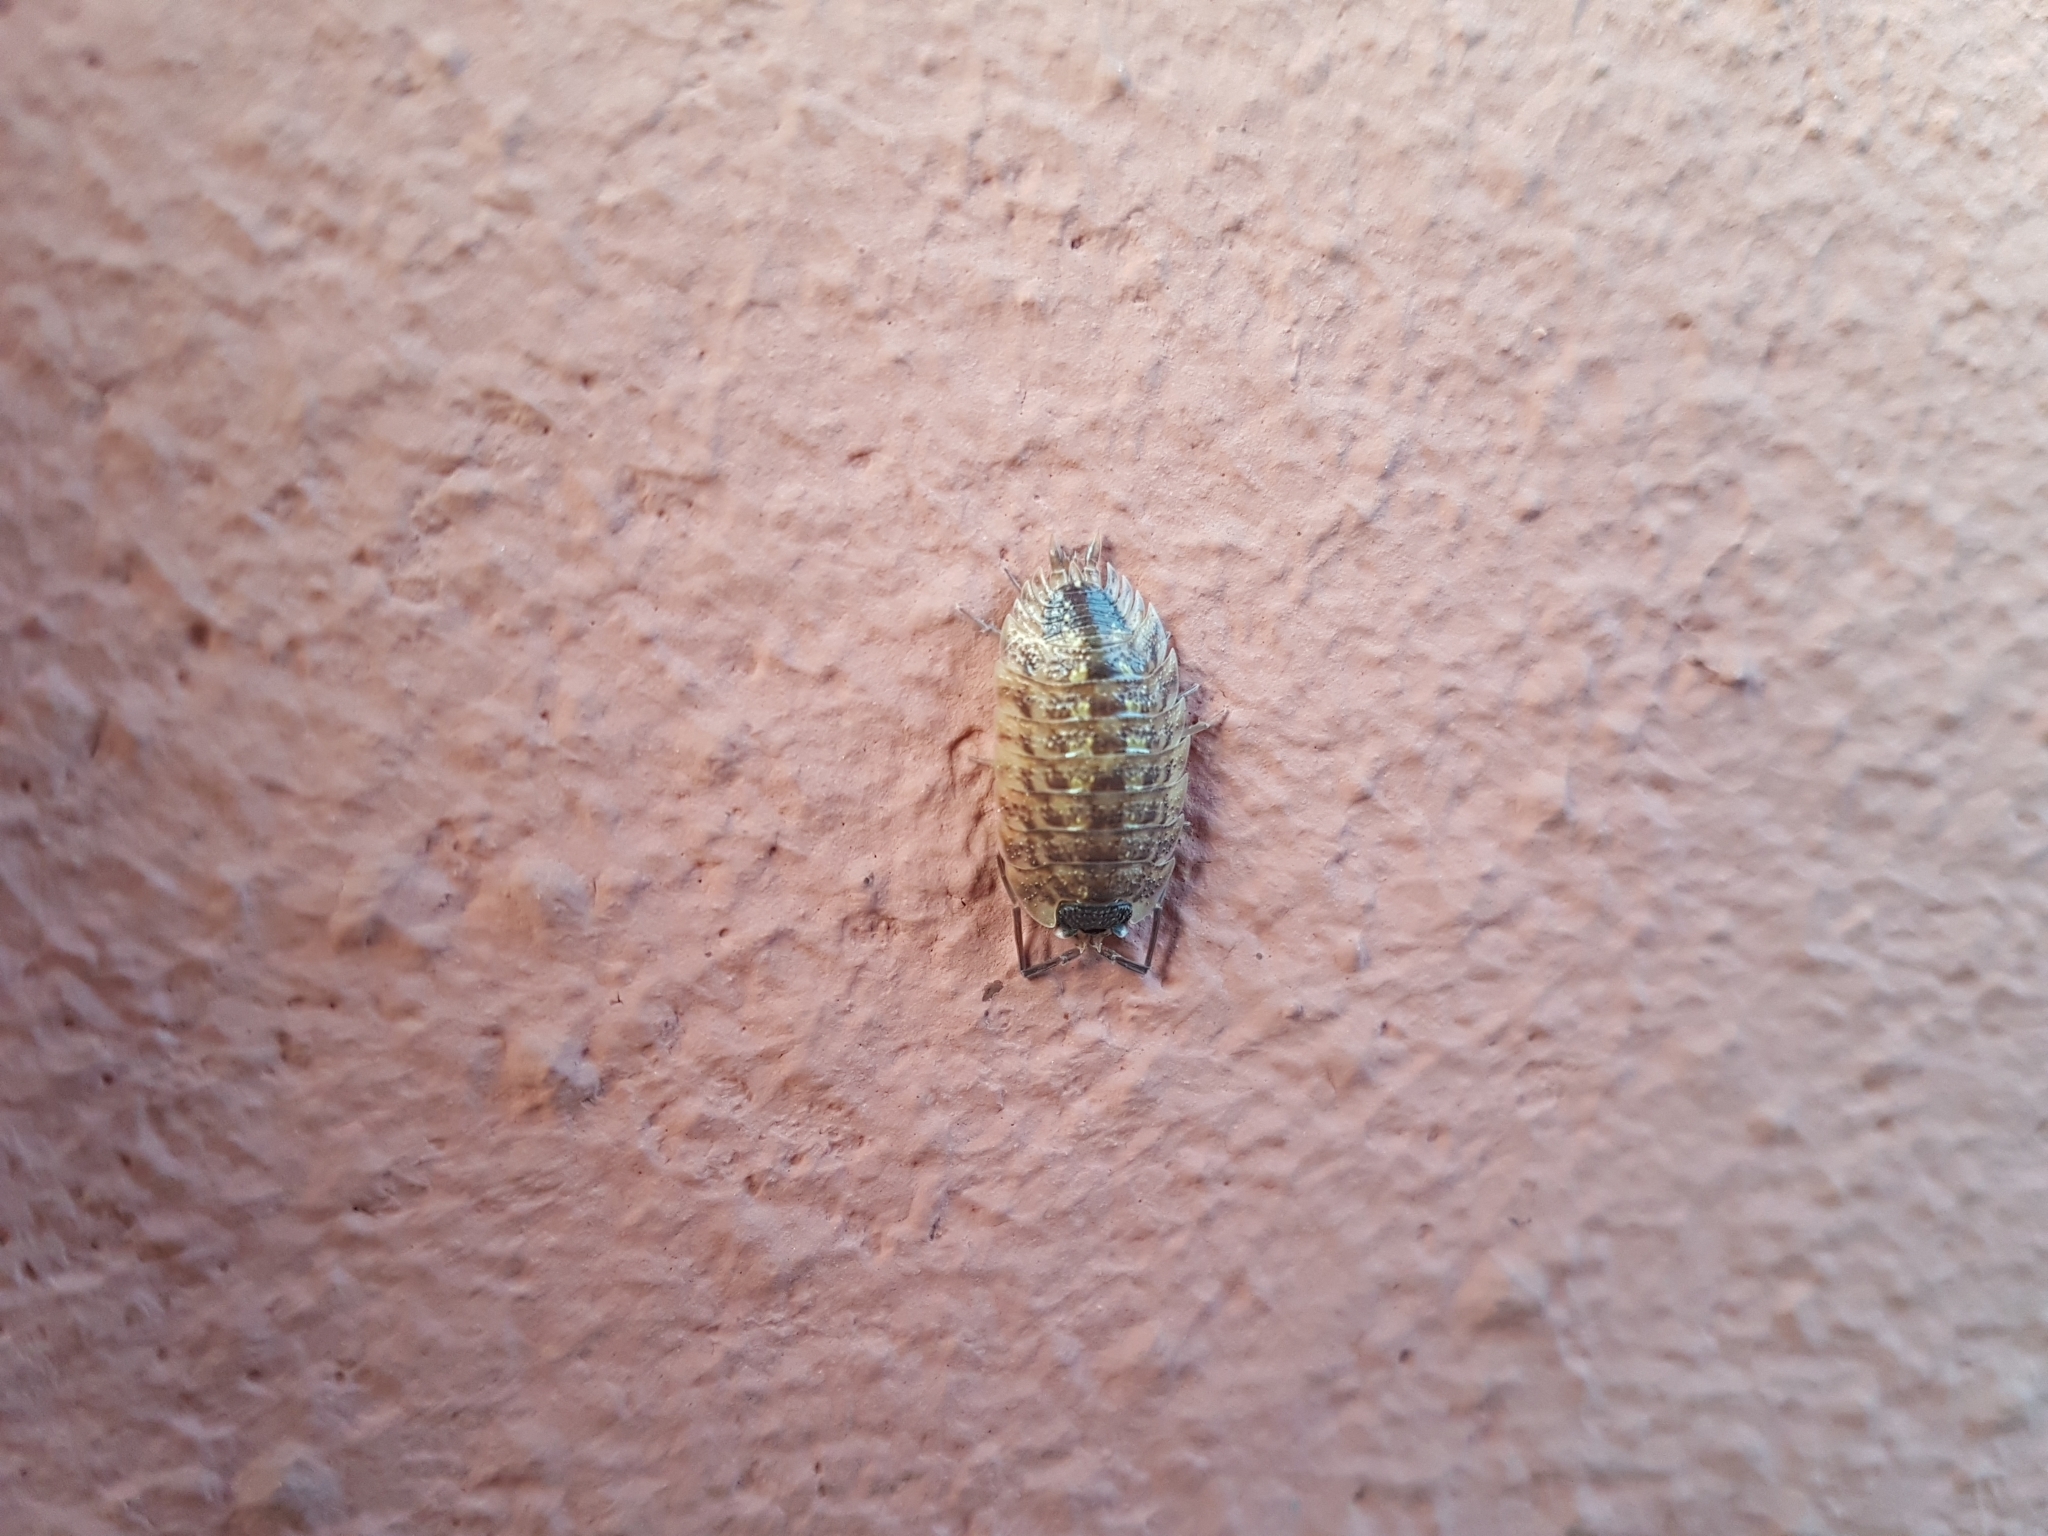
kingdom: Animalia
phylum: Arthropoda
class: Malacostraca
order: Isopoda
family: Porcellionidae
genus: Porcellio
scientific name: Porcellio spinicornis
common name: Painted woodlouse
